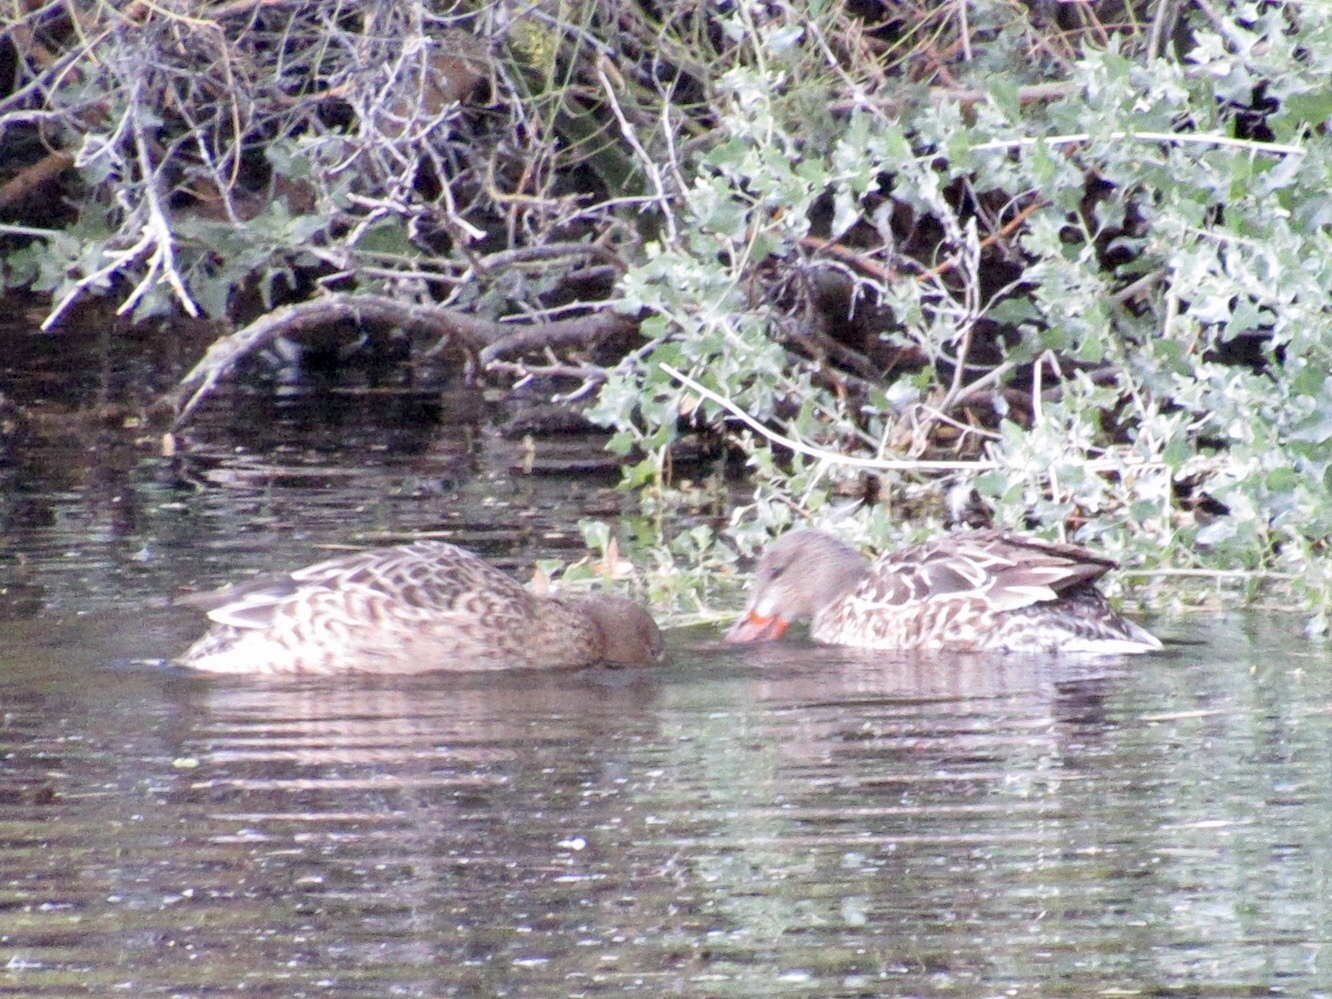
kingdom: Animalia
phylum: Chordata
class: Aves
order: Anseriformes
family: Anatidae
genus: Spatula
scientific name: Spatula clypeata
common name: Northern shoveler
